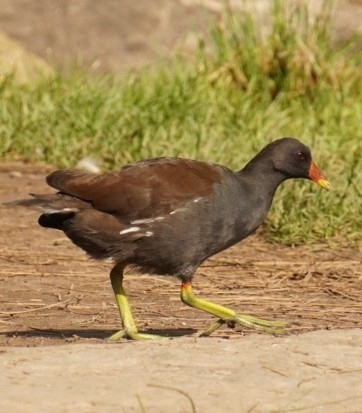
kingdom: Animalia
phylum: Chordata
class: Aves
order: Gruiformes
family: Rallidae
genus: Gallinula
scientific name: Gallinula chloropus
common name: Common moorhen
